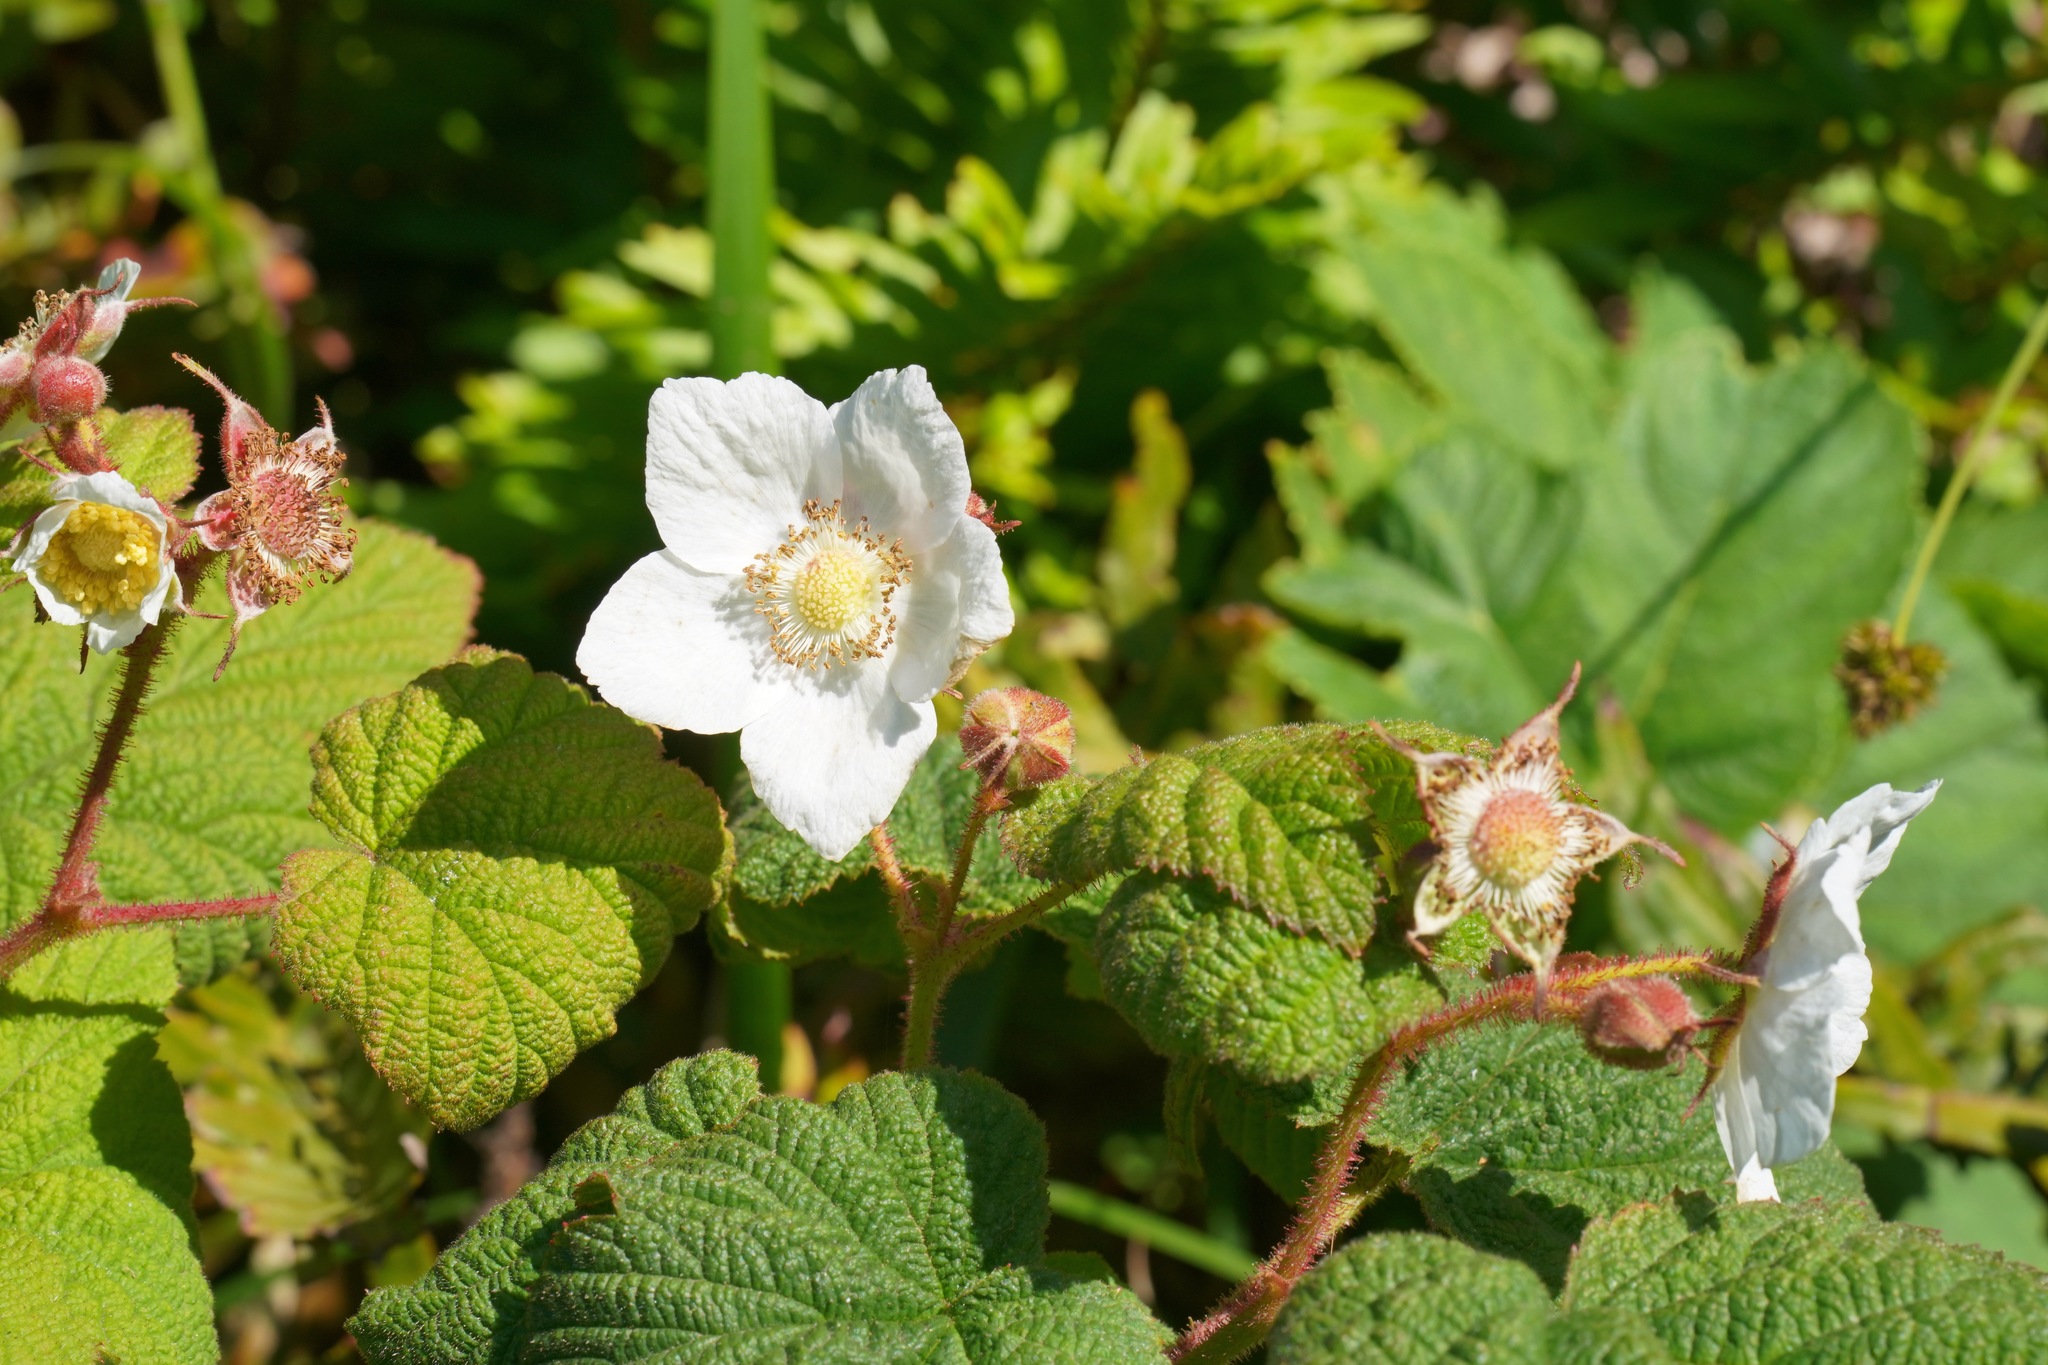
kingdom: Plantae
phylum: Tracheophyta
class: Magnoliopsida
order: Rosales
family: Rosaceae
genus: Rubus
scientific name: Rubus parviflorus
